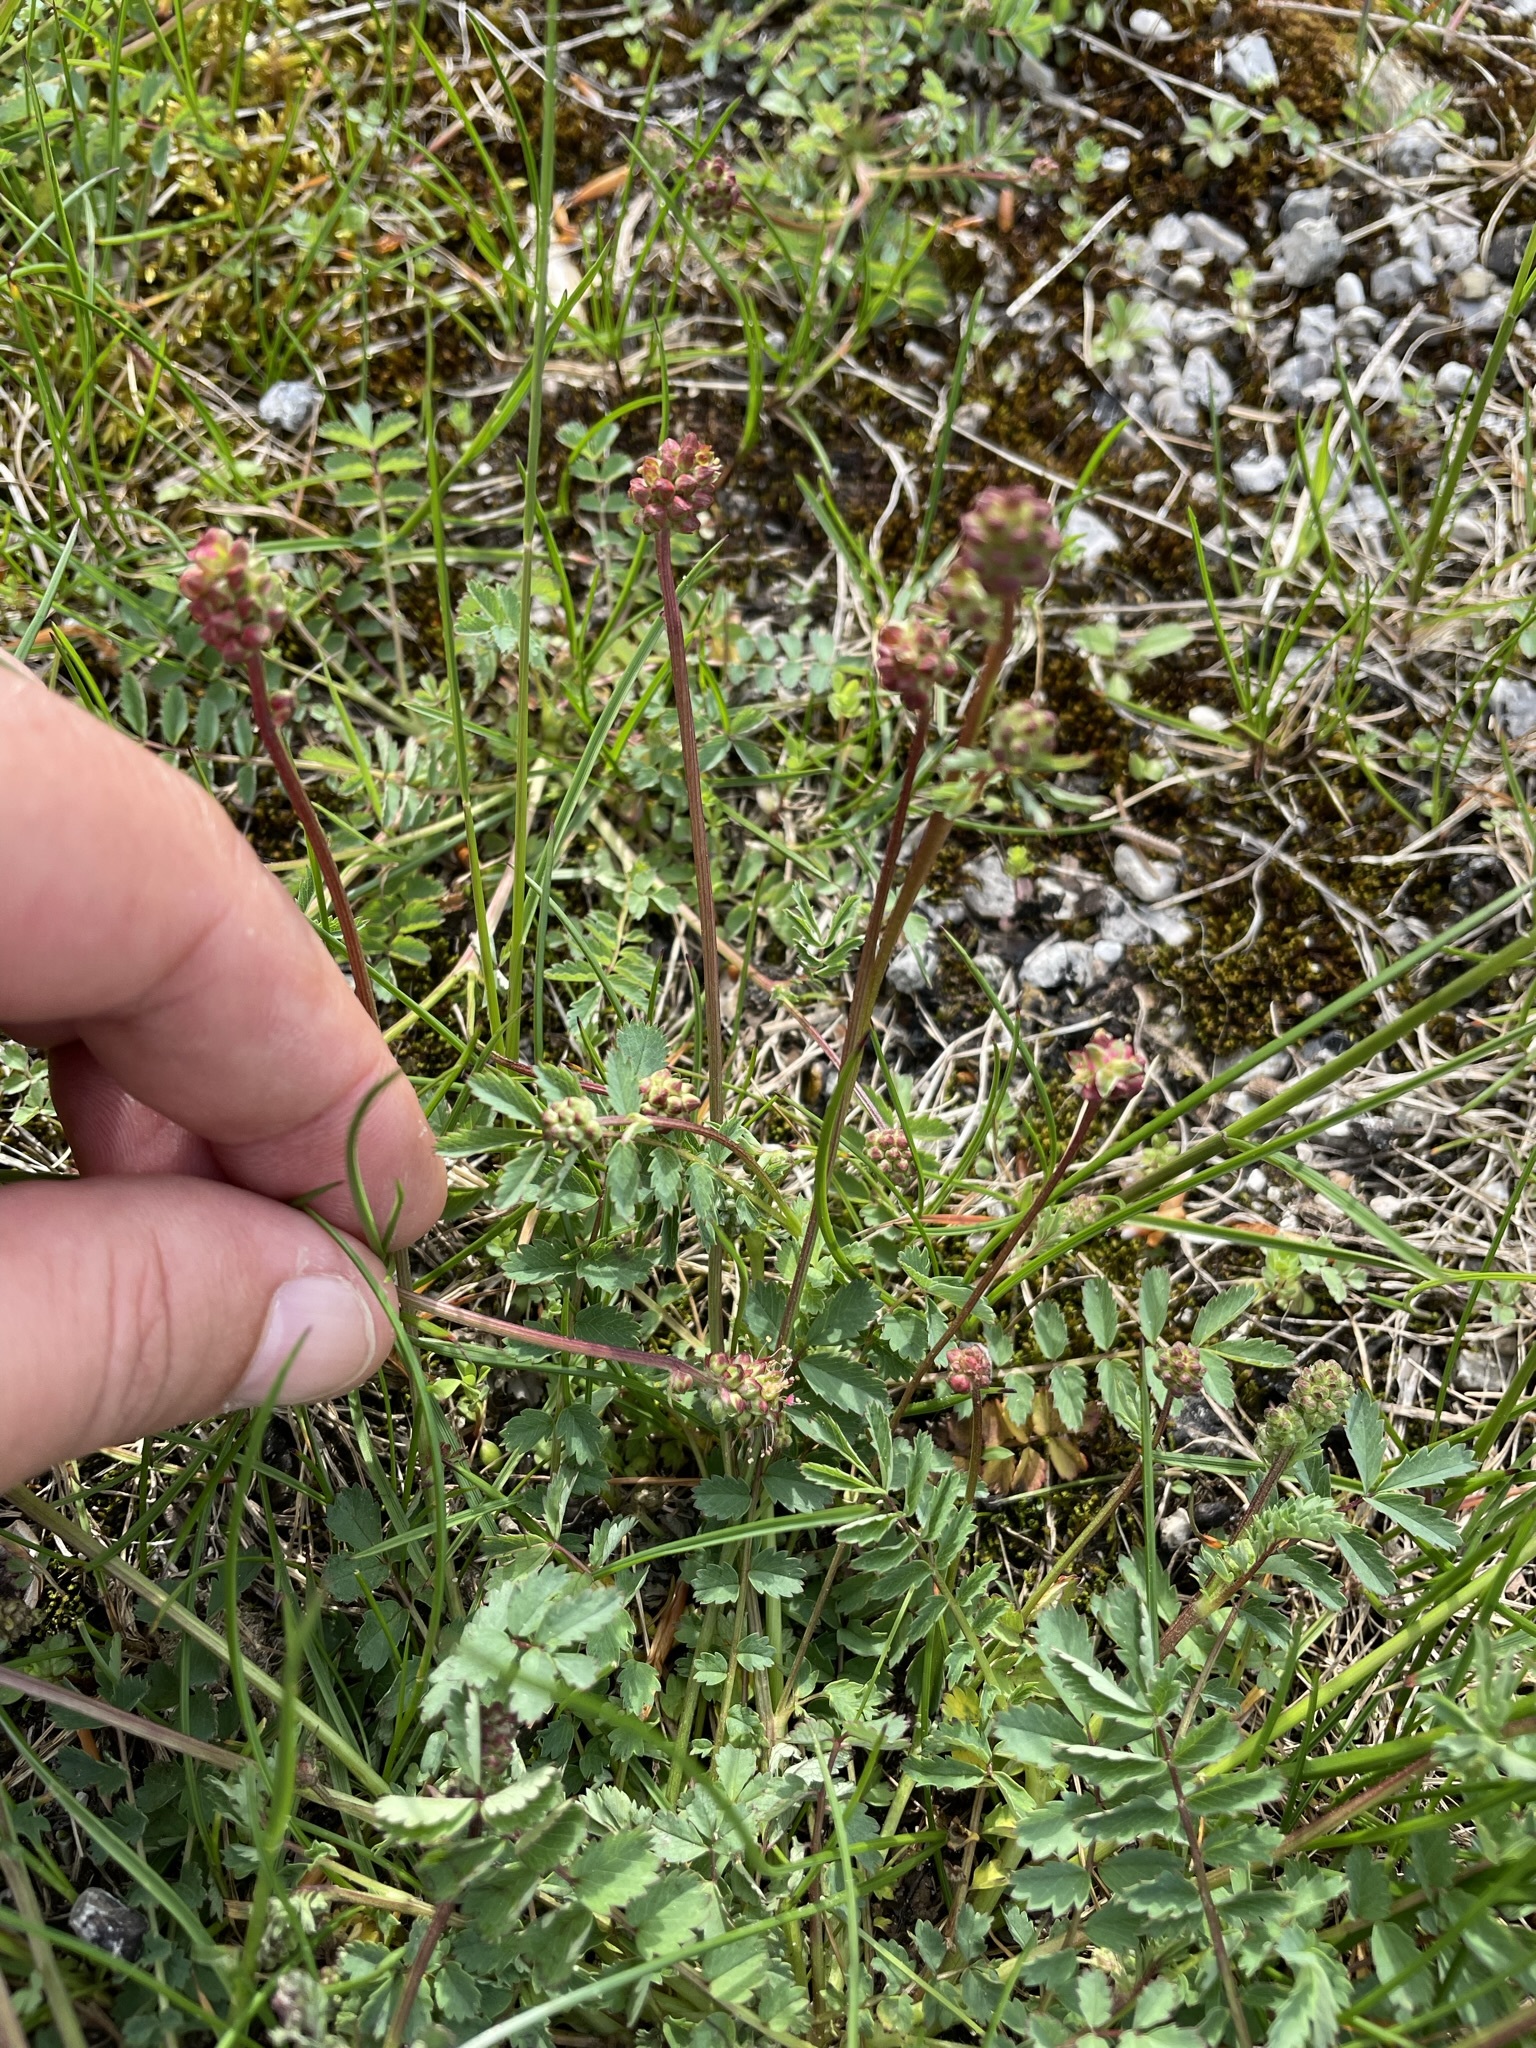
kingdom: Plantae
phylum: Tracheophyta
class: Magnoliopsida
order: Rosales
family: Rosaceae
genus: Poterium
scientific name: Poterium sanguisorba
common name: Salad burnet
